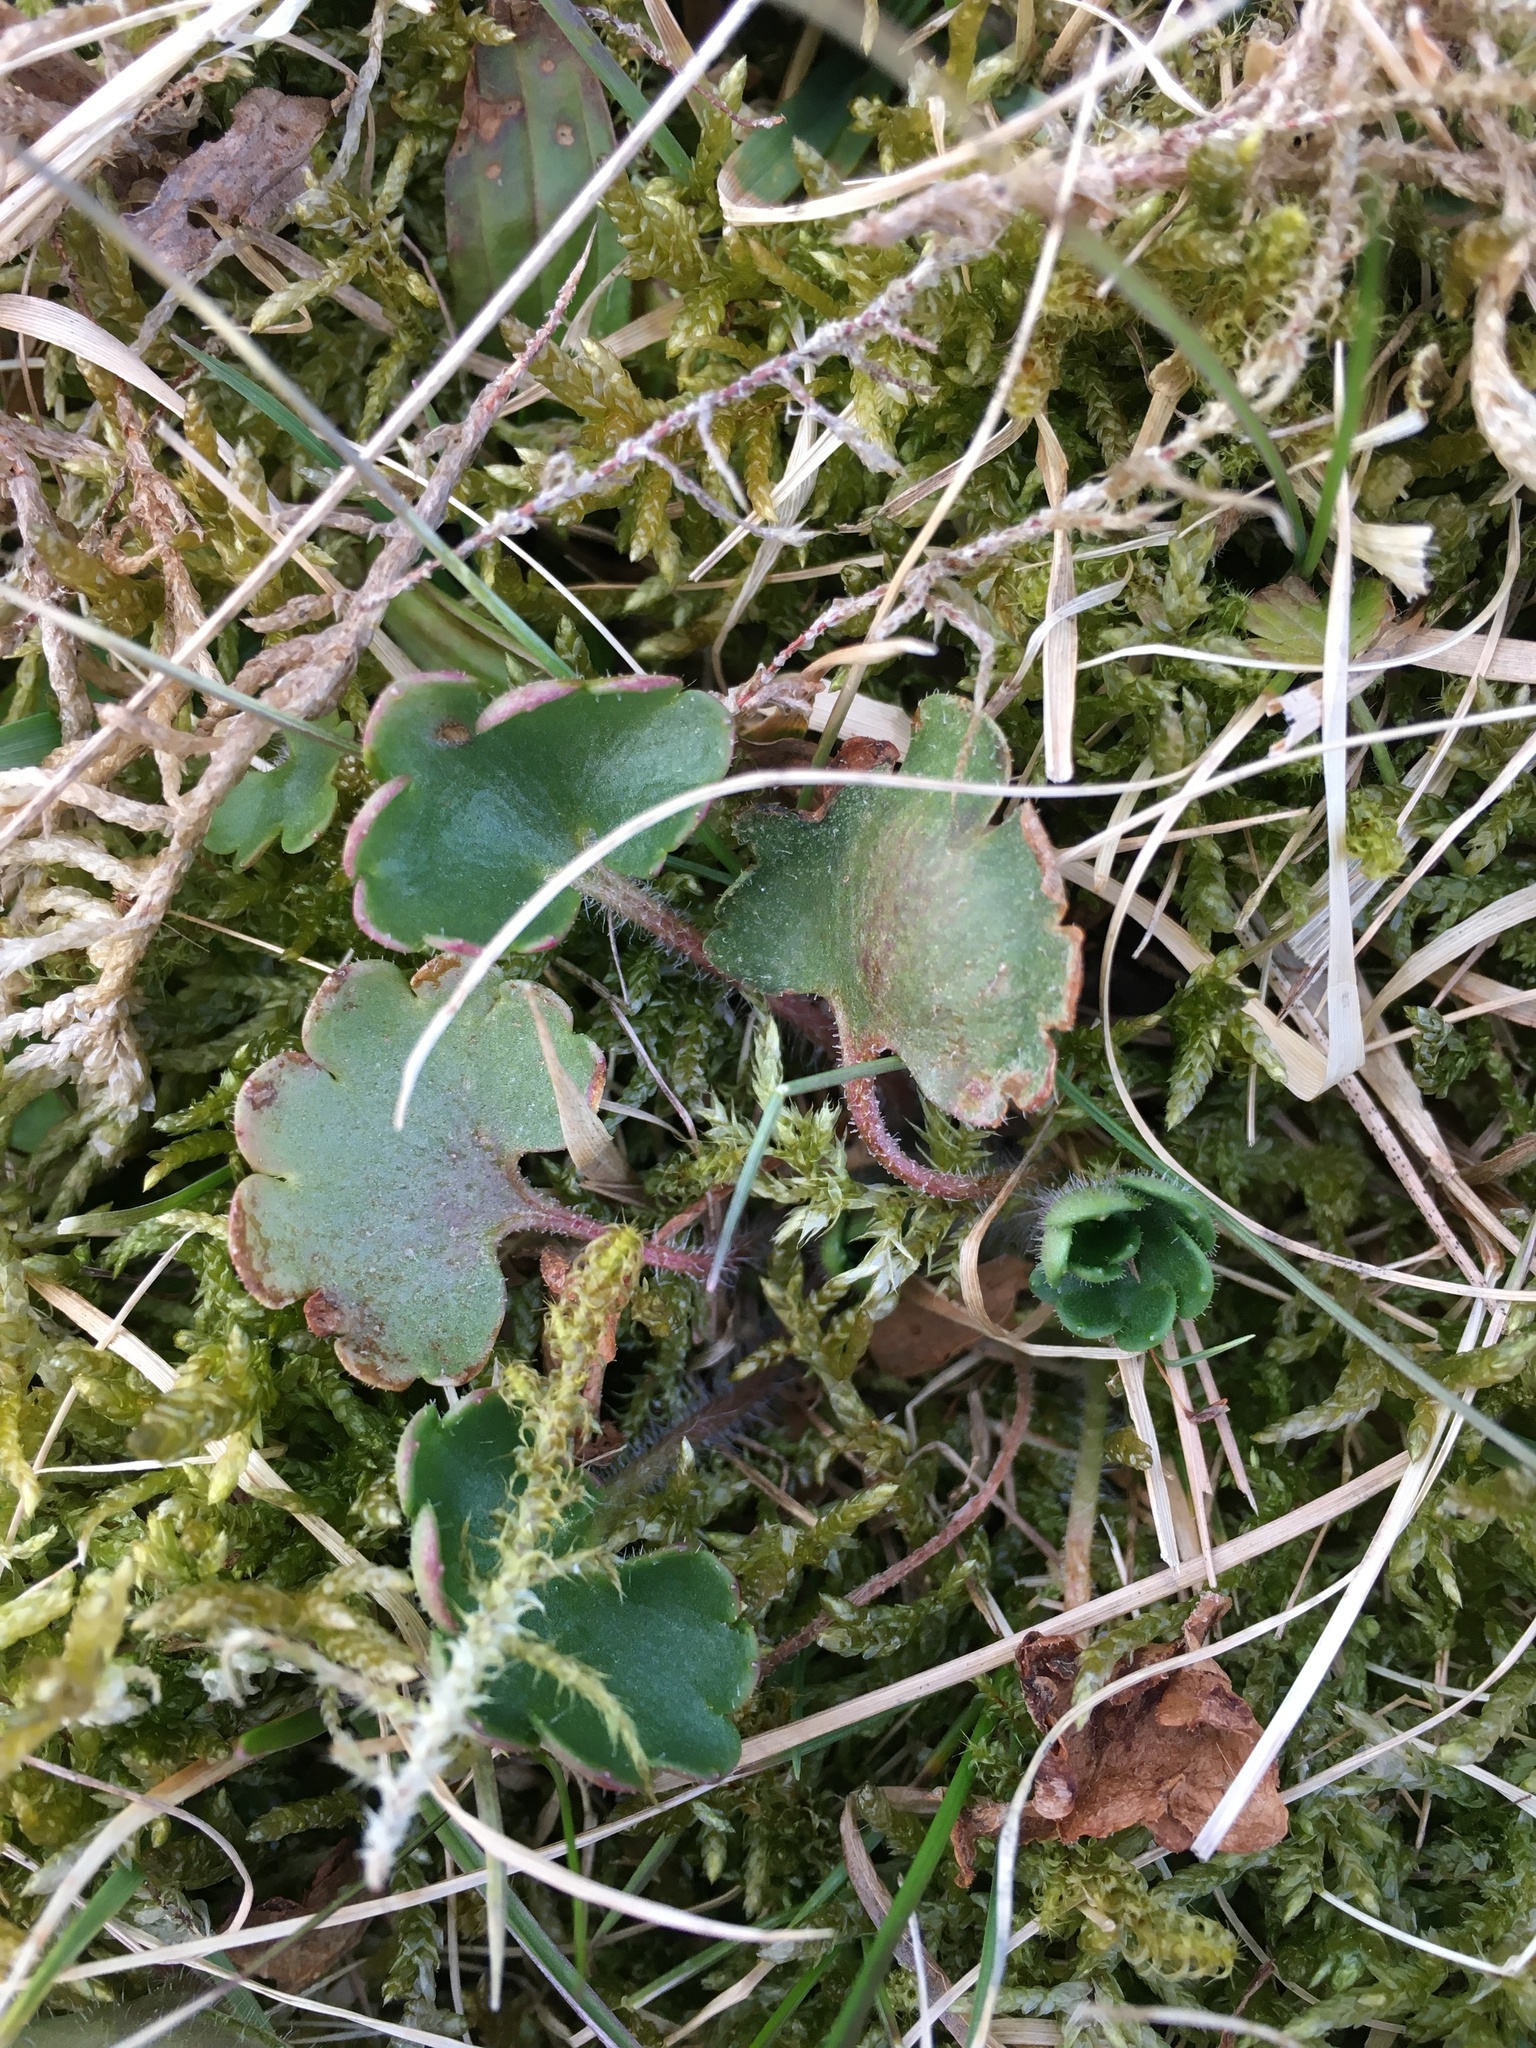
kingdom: Plantae
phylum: Tracheophyta
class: Magnoliopsida
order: Saxifragales
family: Saxifragaceae
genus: Saxifraga
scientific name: Saxifraga granulata
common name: Meadow saxifrage
